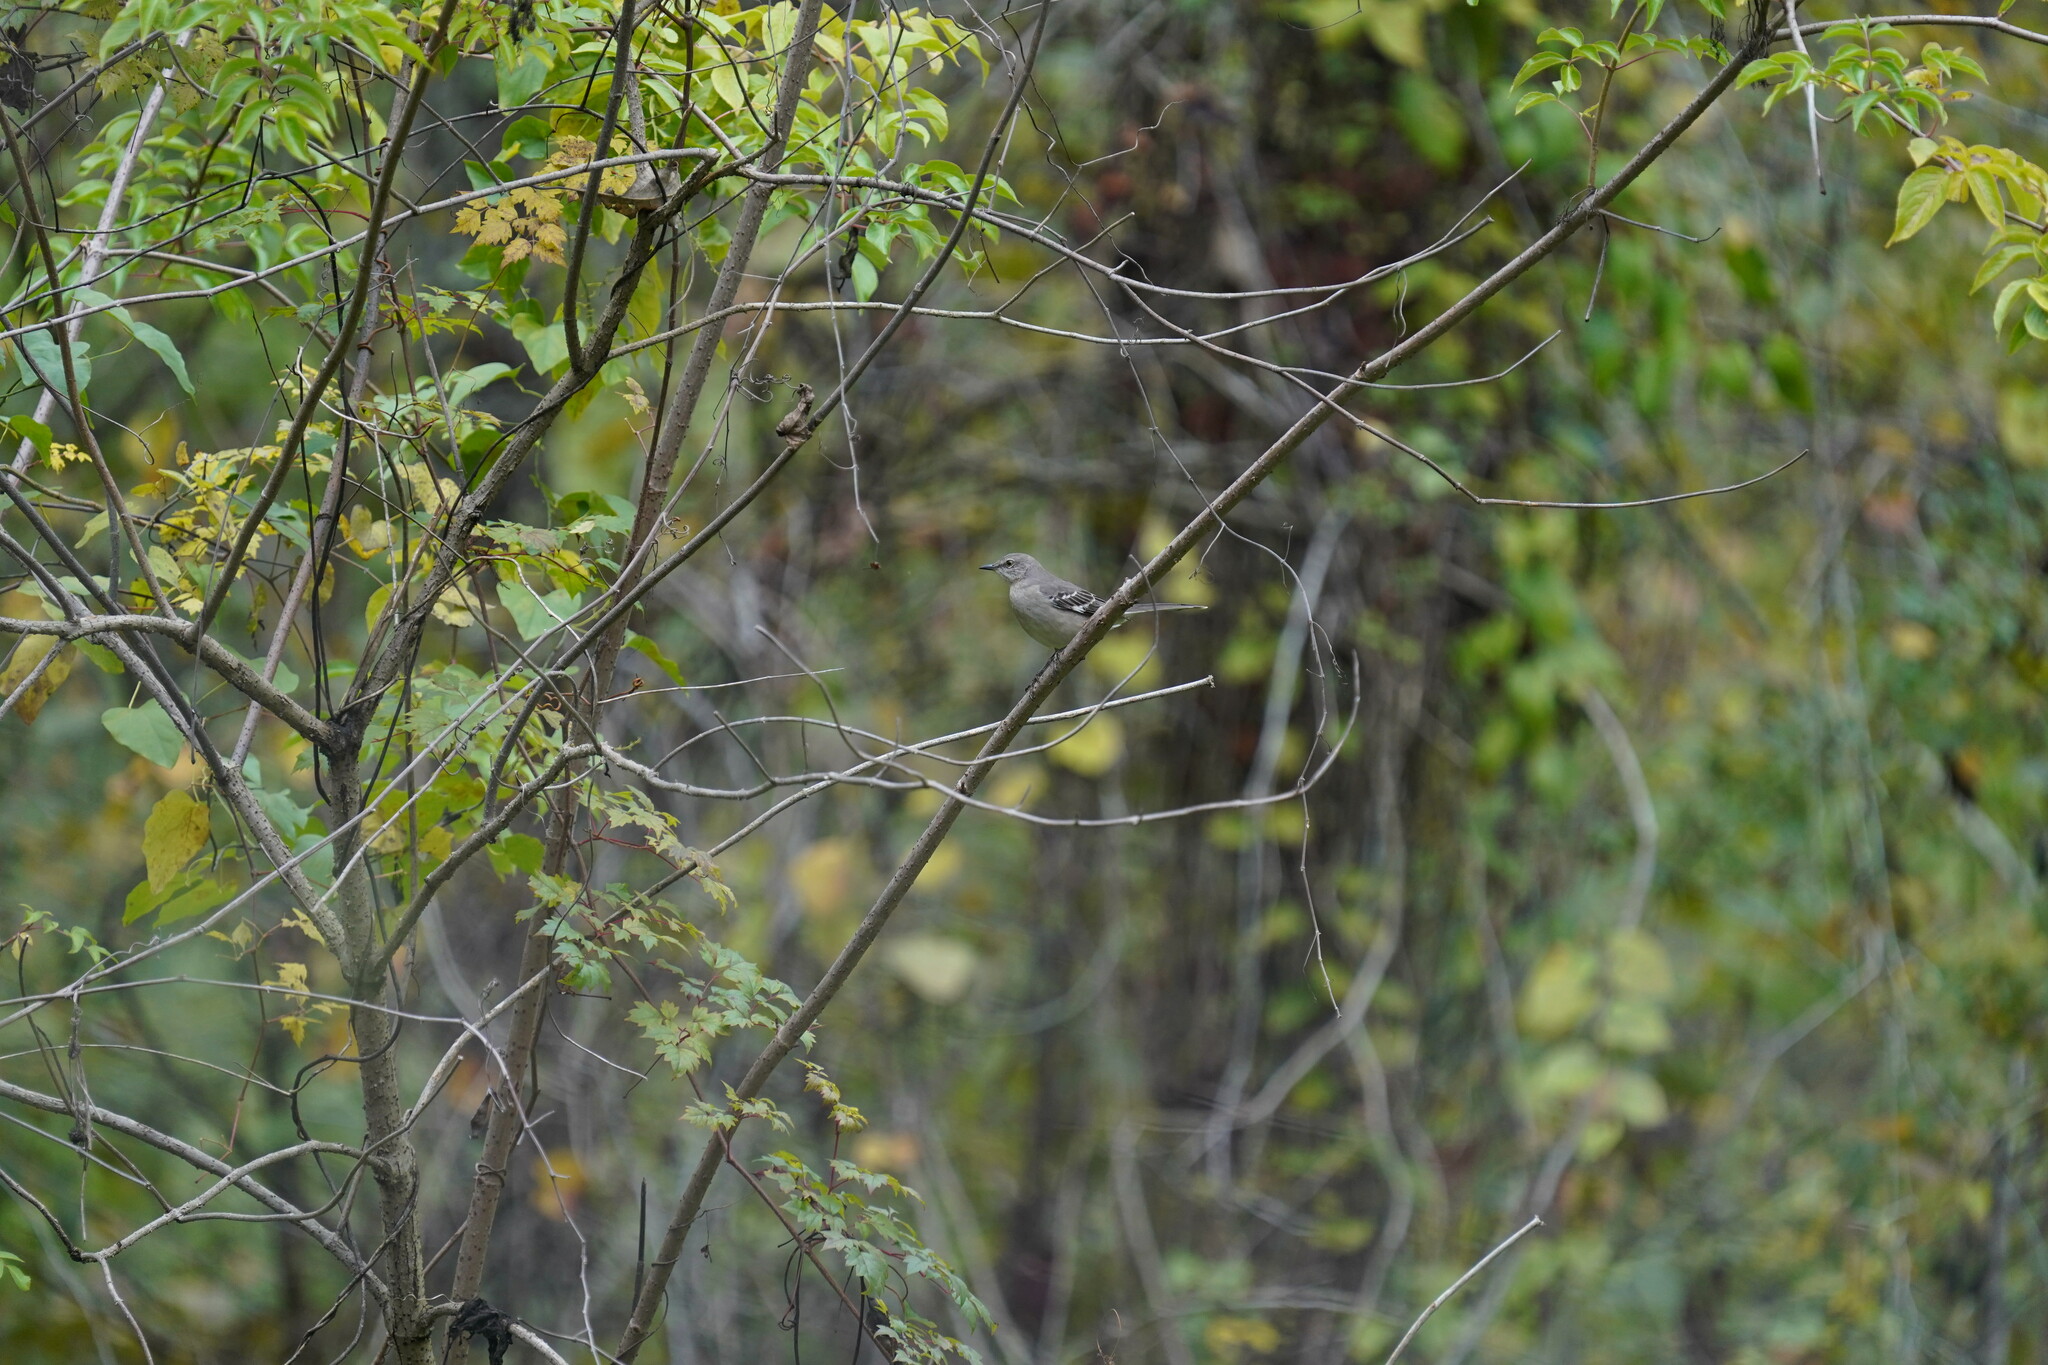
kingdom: Animalia
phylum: Chordata
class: Aves
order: Passeriformes
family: Mimidae
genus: Mimus
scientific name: Mimus polyglottos
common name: Northern mockingbird
